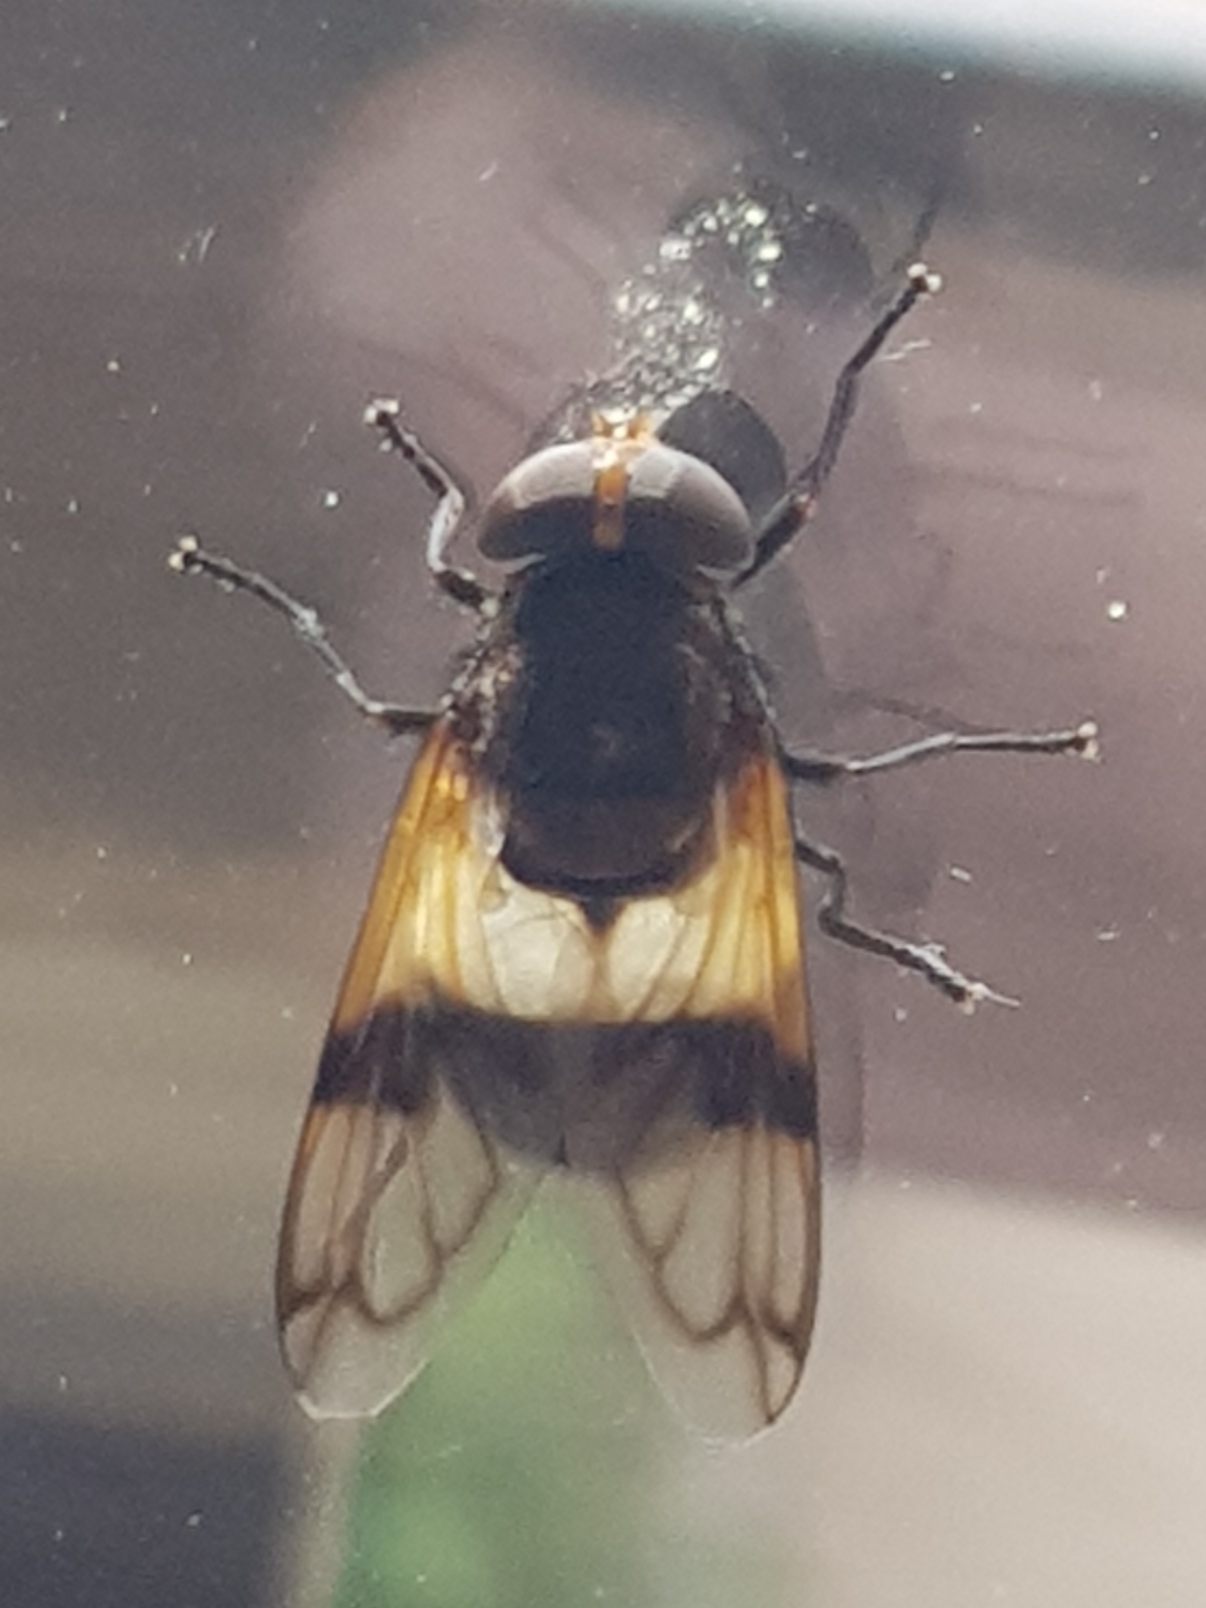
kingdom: Animalia
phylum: Arthropoda
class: Insecta
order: Diptera
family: Syrphidae
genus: Volucella
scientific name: Volucella pellucens
